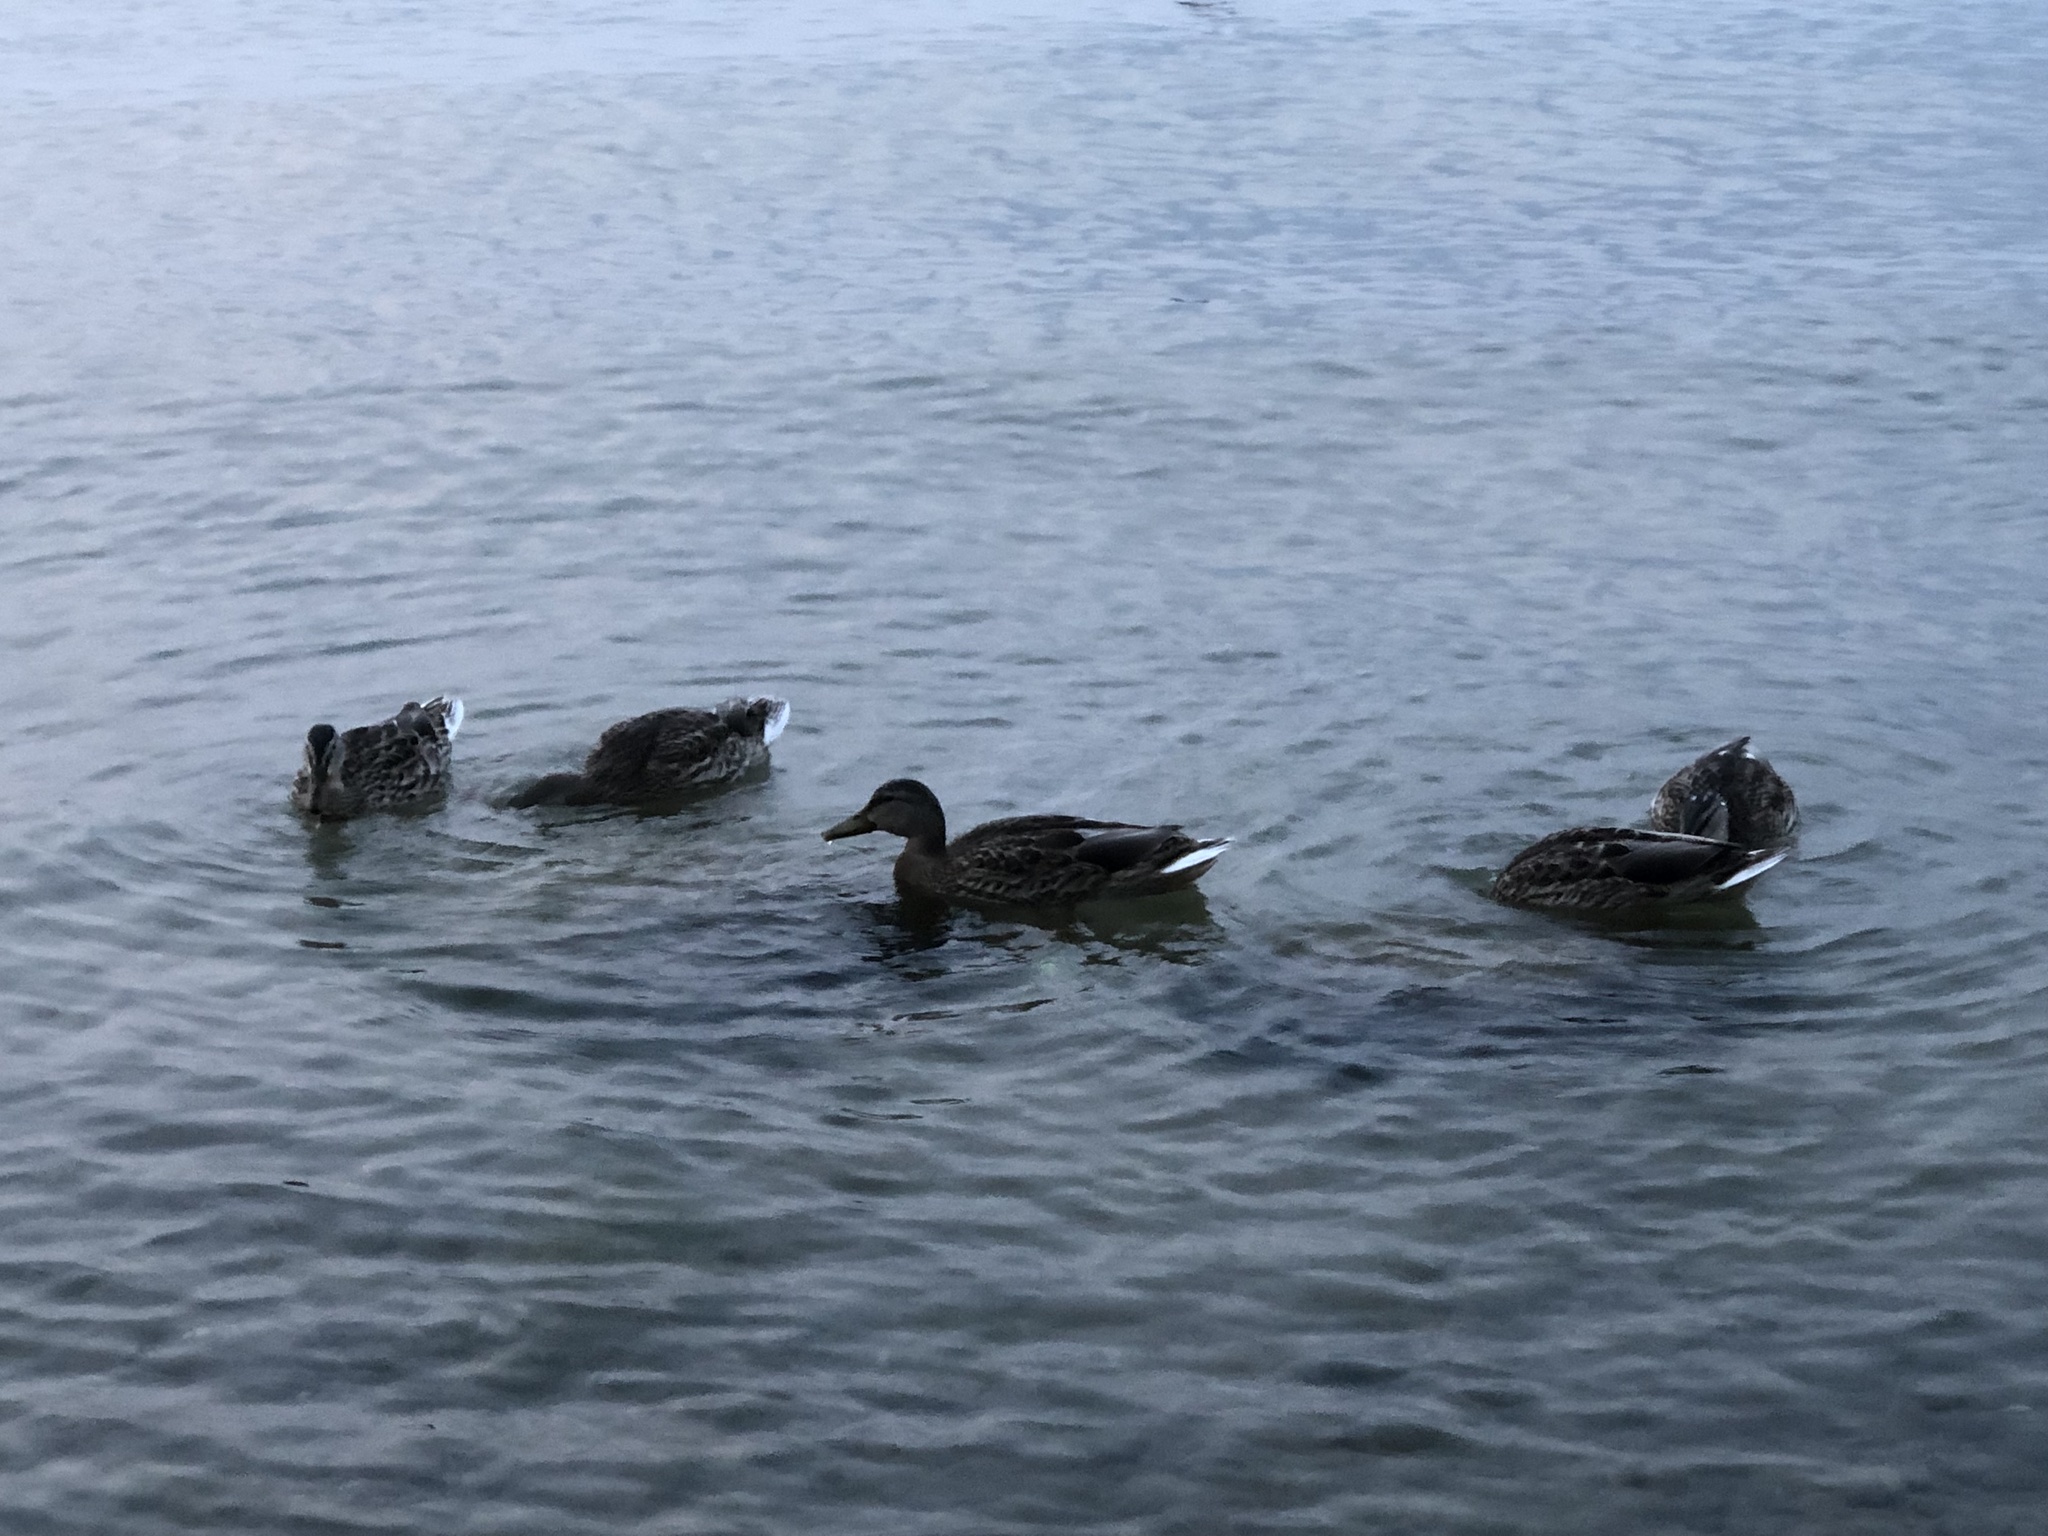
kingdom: Animalia
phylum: Chordata
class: Aves
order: Anseriformes
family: Anatidae
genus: Anas
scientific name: Anas platyrhynchos
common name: Mallard
